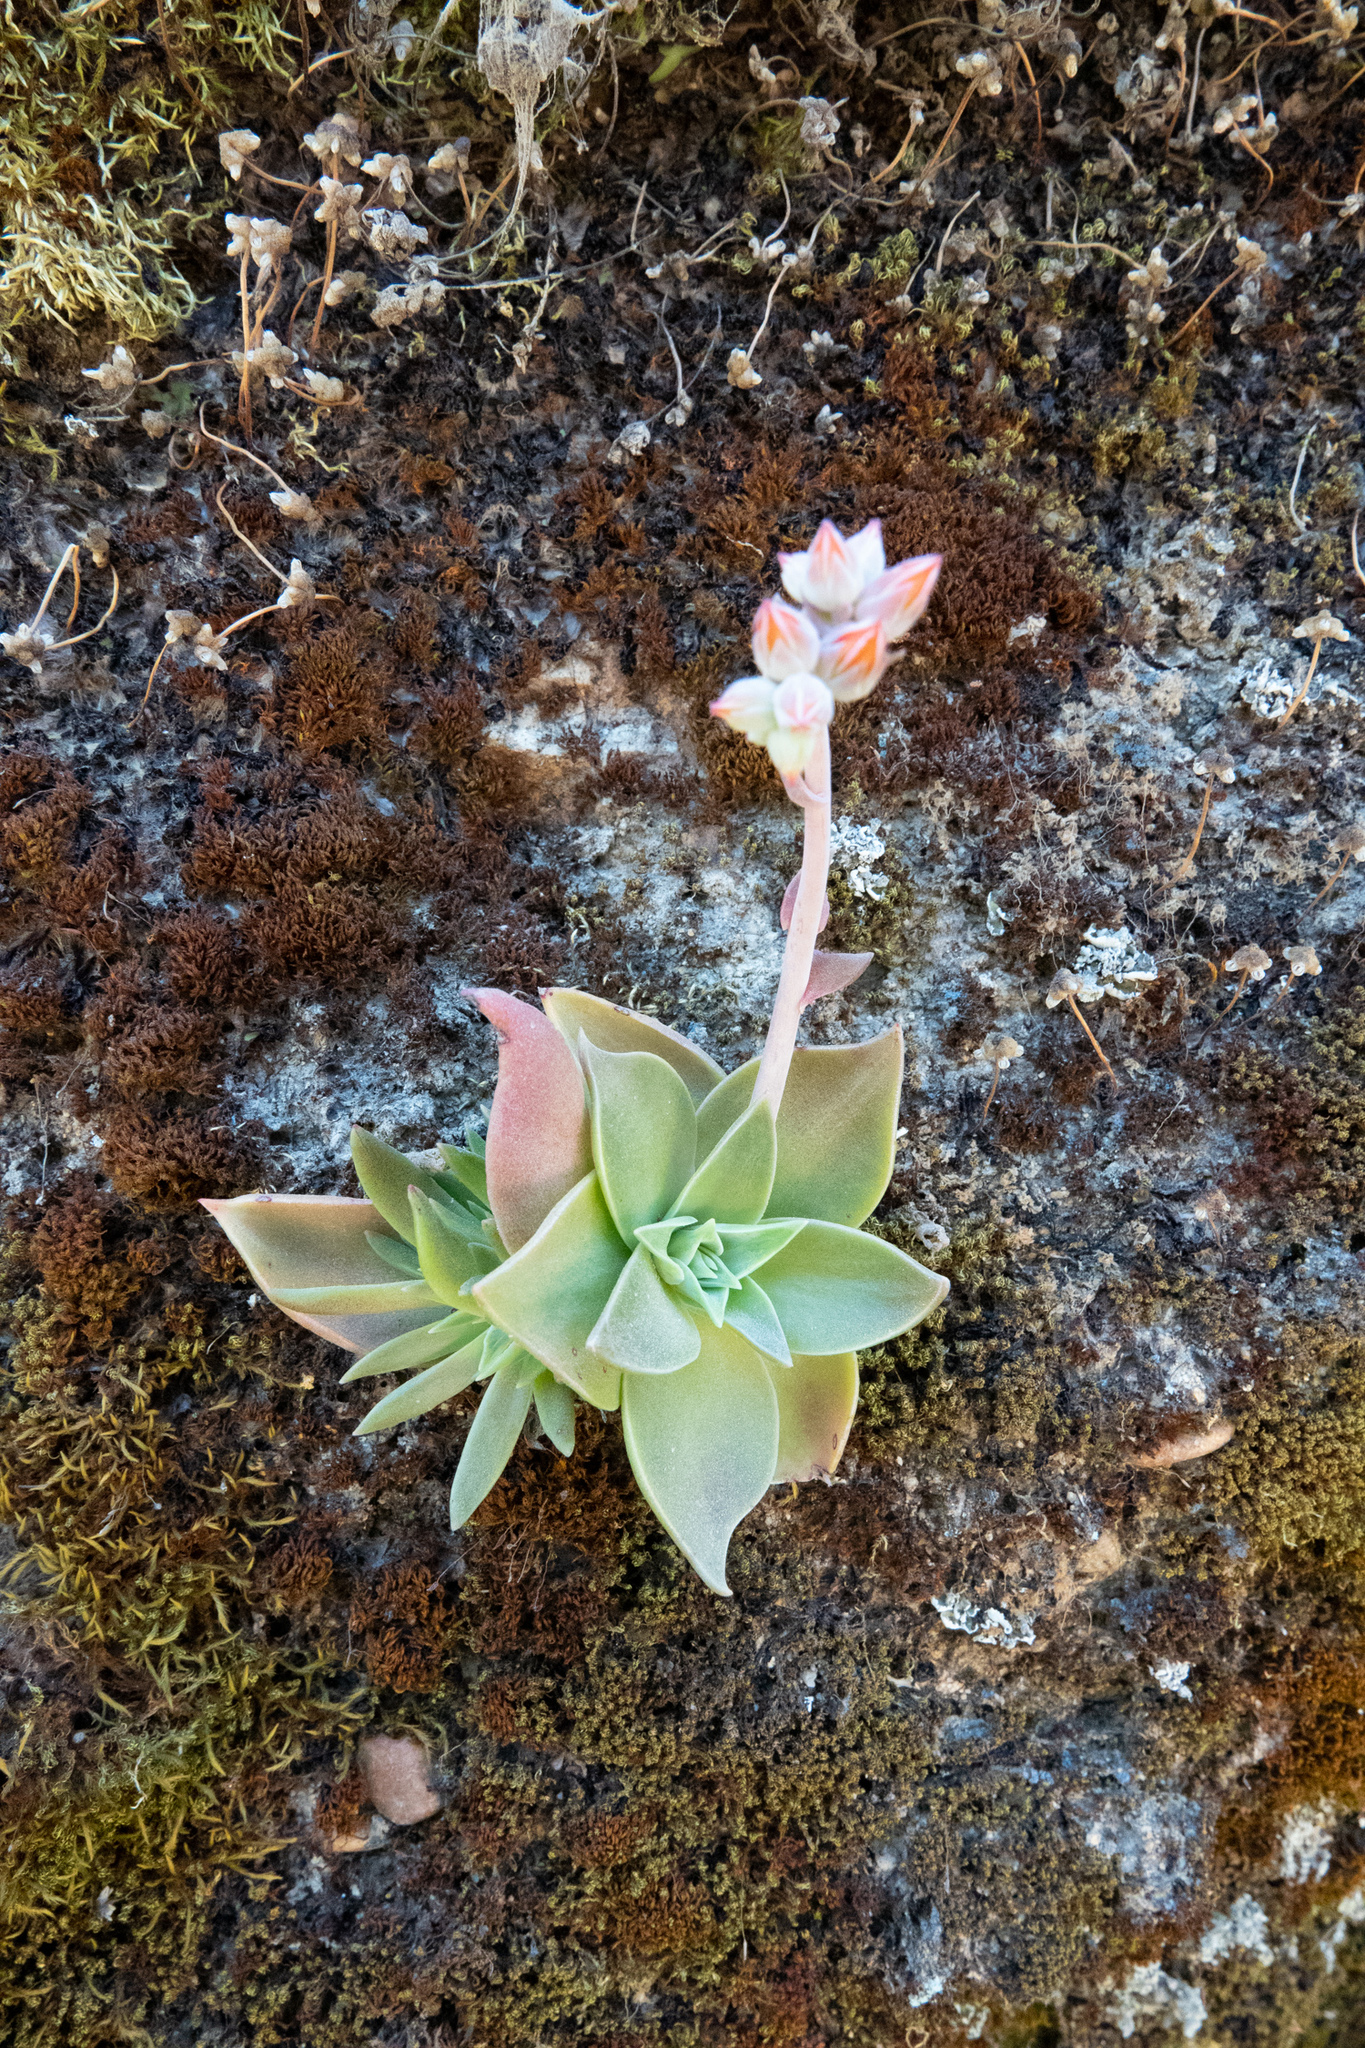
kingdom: Plantae
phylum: Tracheophyta
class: Magnoliopsida
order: Saxifragales
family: Crassulaceae
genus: Dudleya
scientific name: Dudleya cymosa
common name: Canyon dudleya
